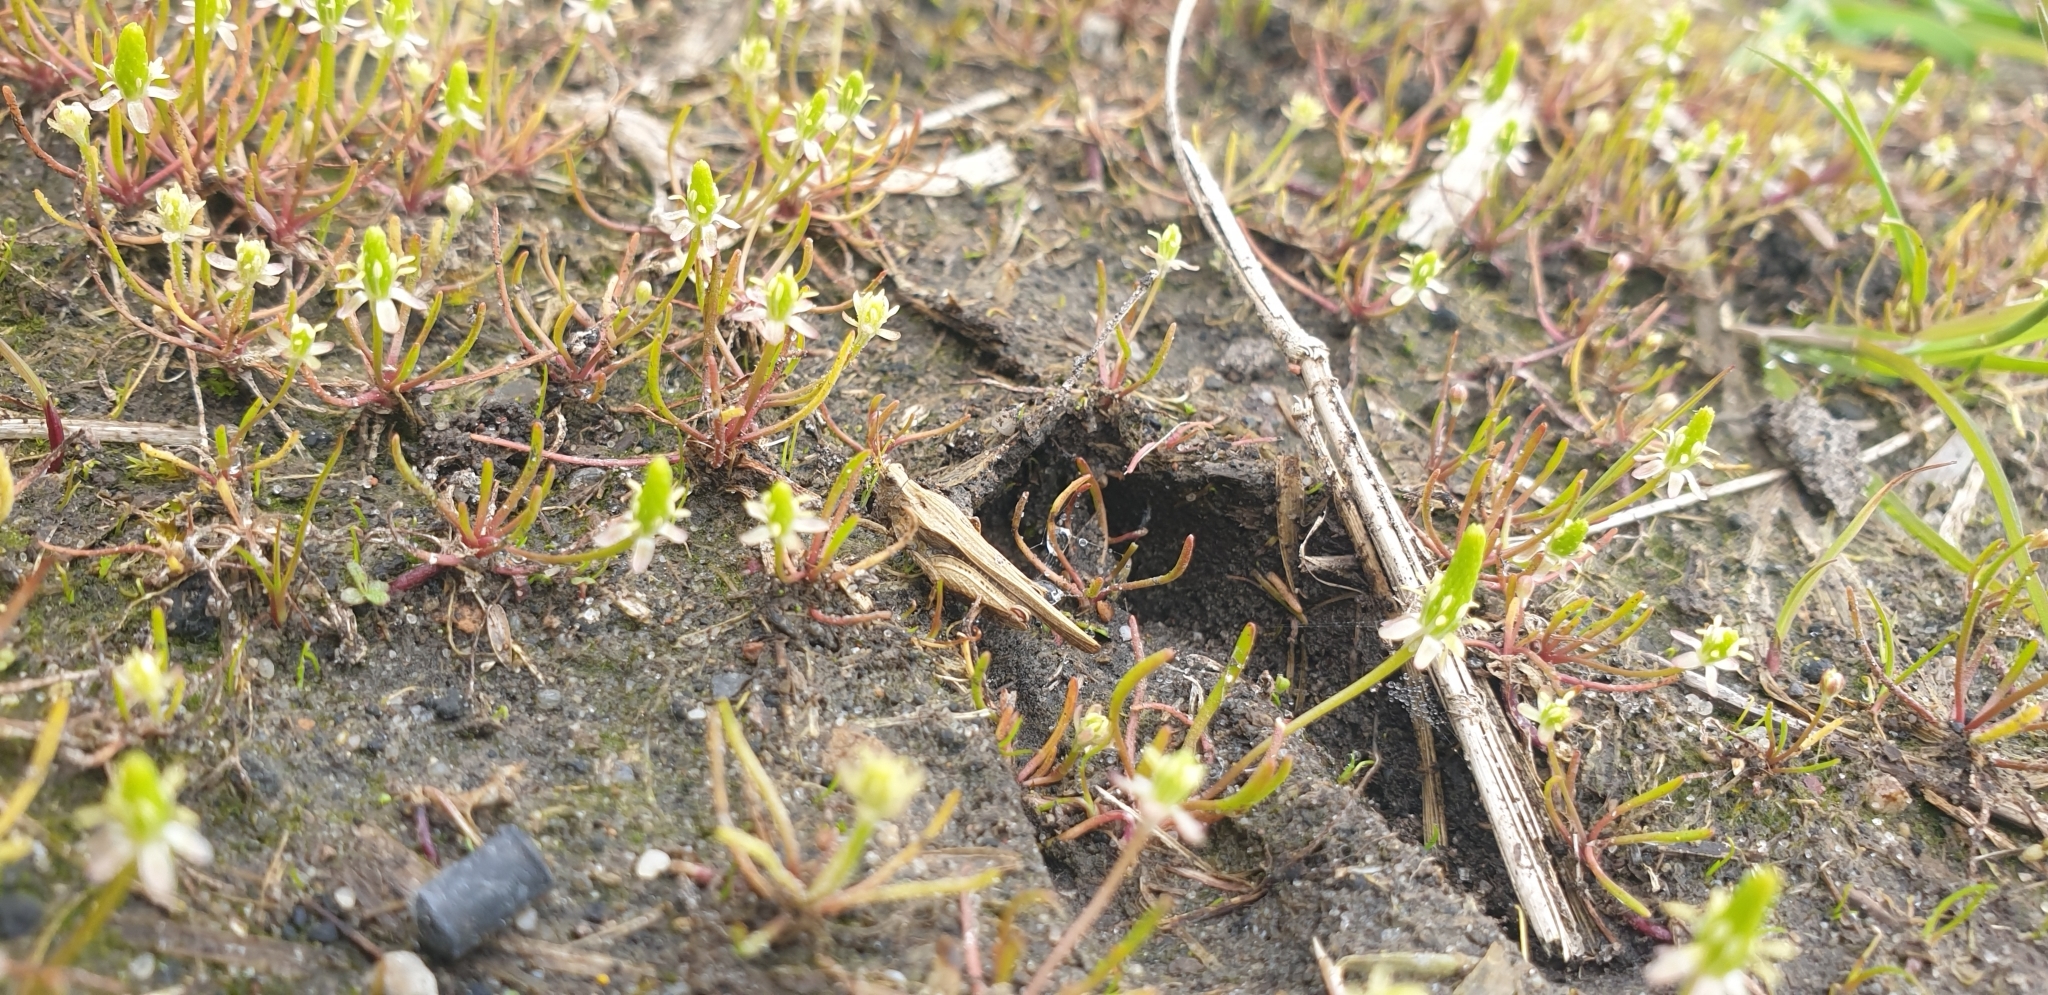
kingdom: Animalia
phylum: Arthropoda
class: Insecta
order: Orthoptera
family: Tetrigidae
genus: Tetrix
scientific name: Tetrix subulata
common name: Slender ground-hopper
